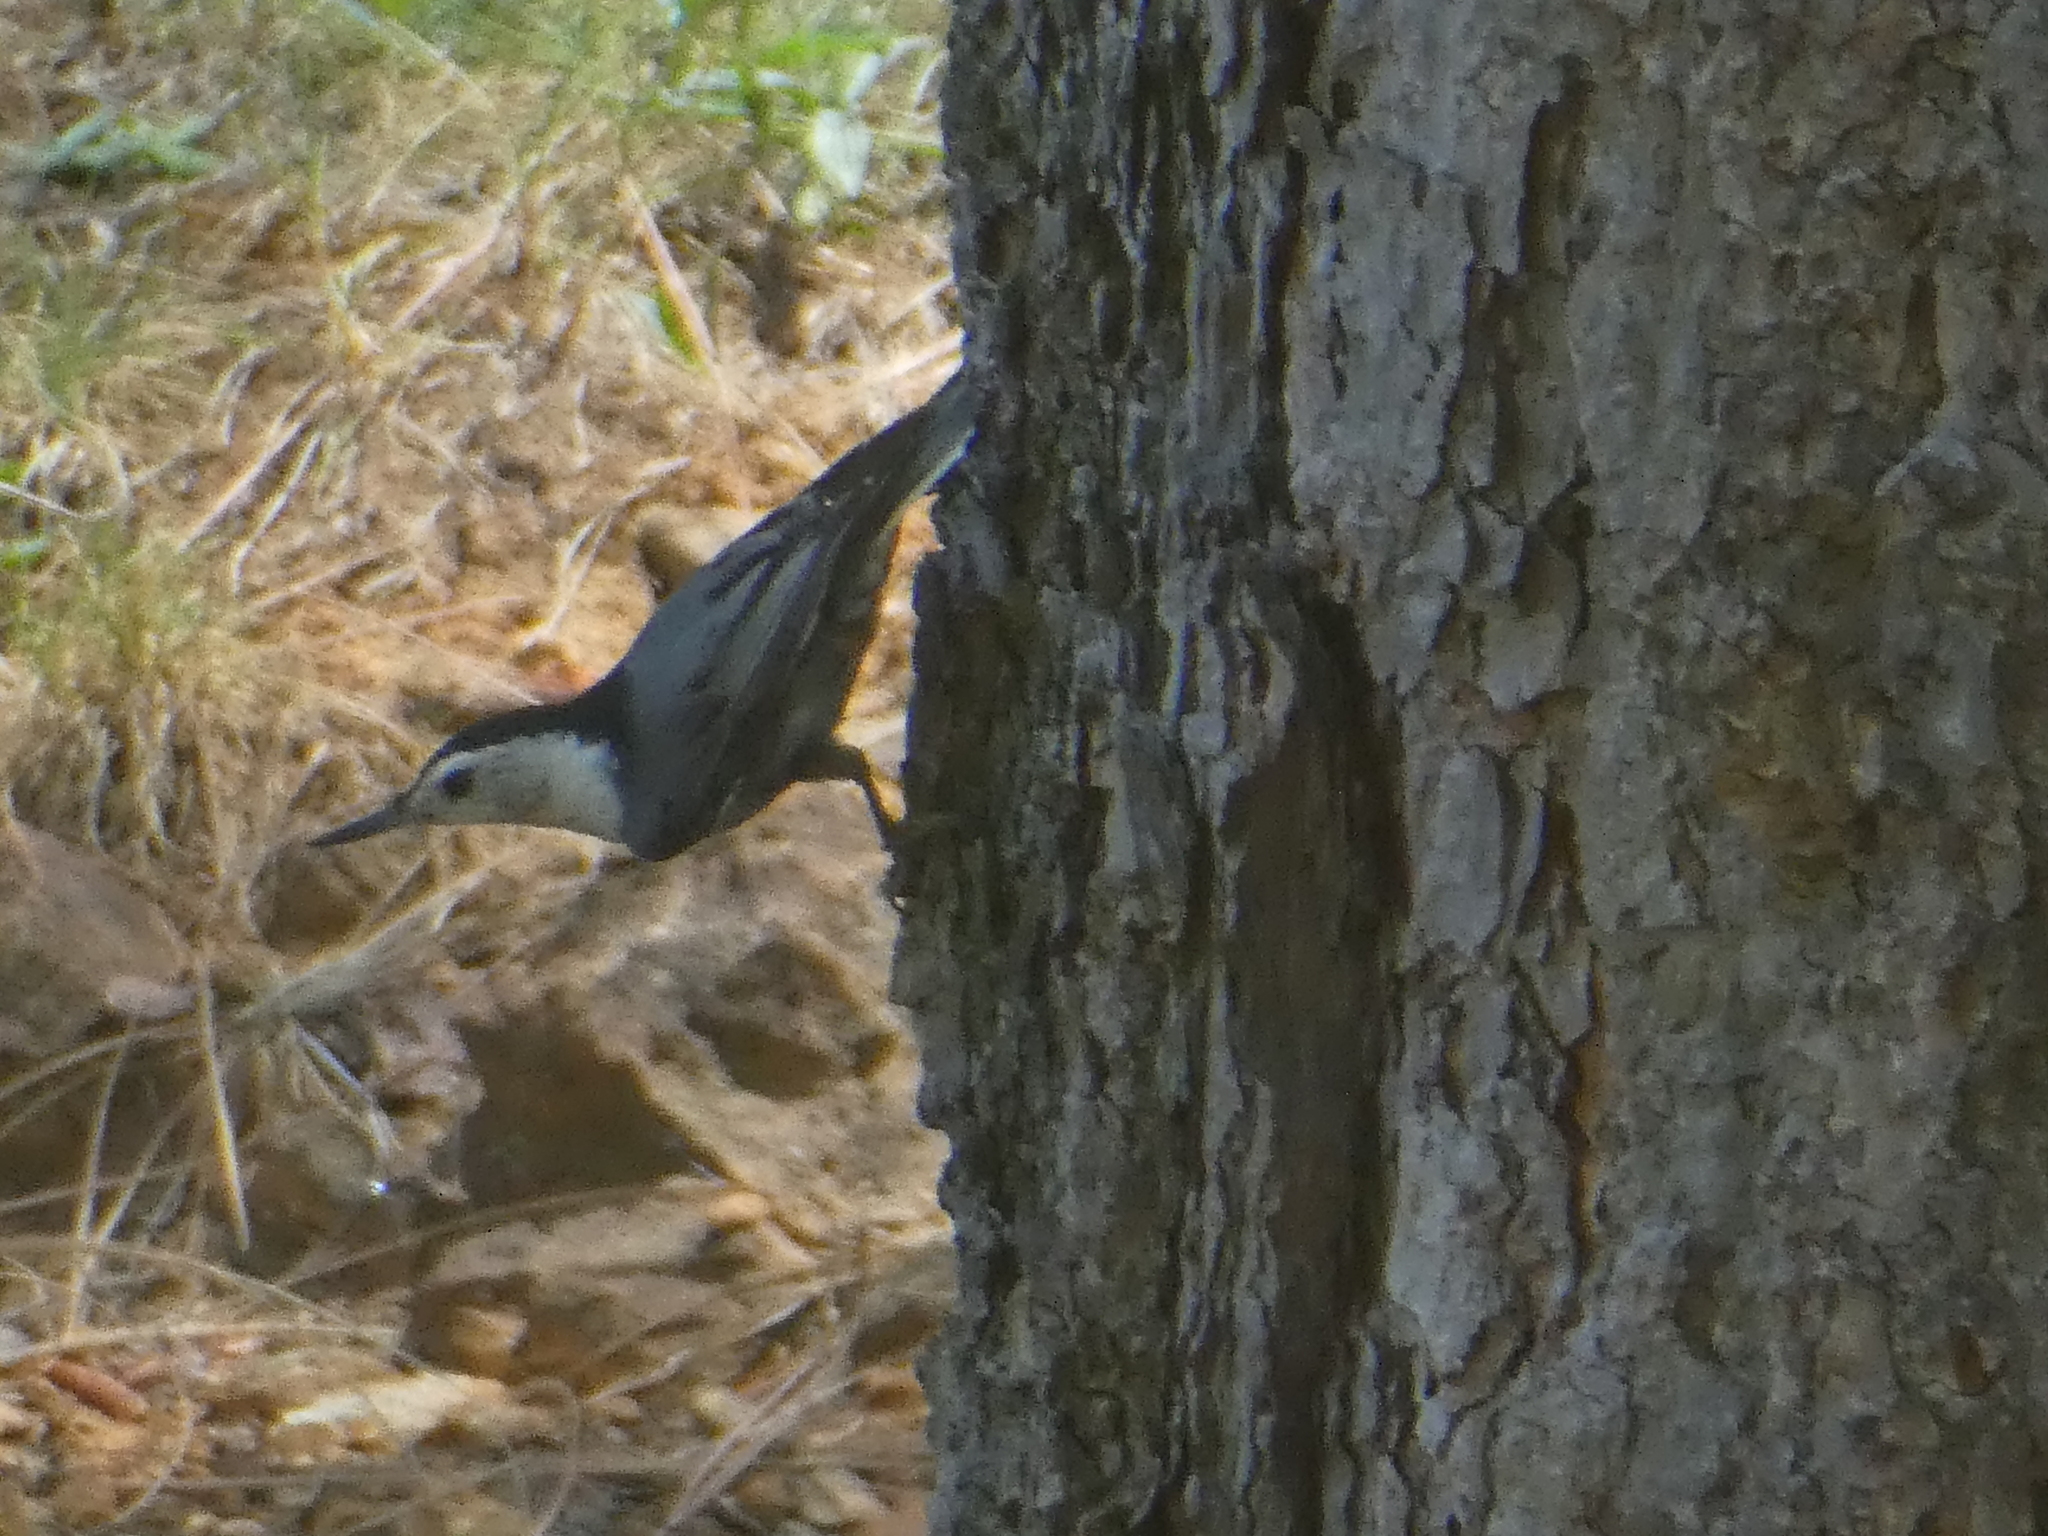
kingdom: Animalia
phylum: Chordata
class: Aves
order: Passeriformes
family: Sittidae
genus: Sitta
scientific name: Sitta carolinensis
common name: White-breasted nuthatch
